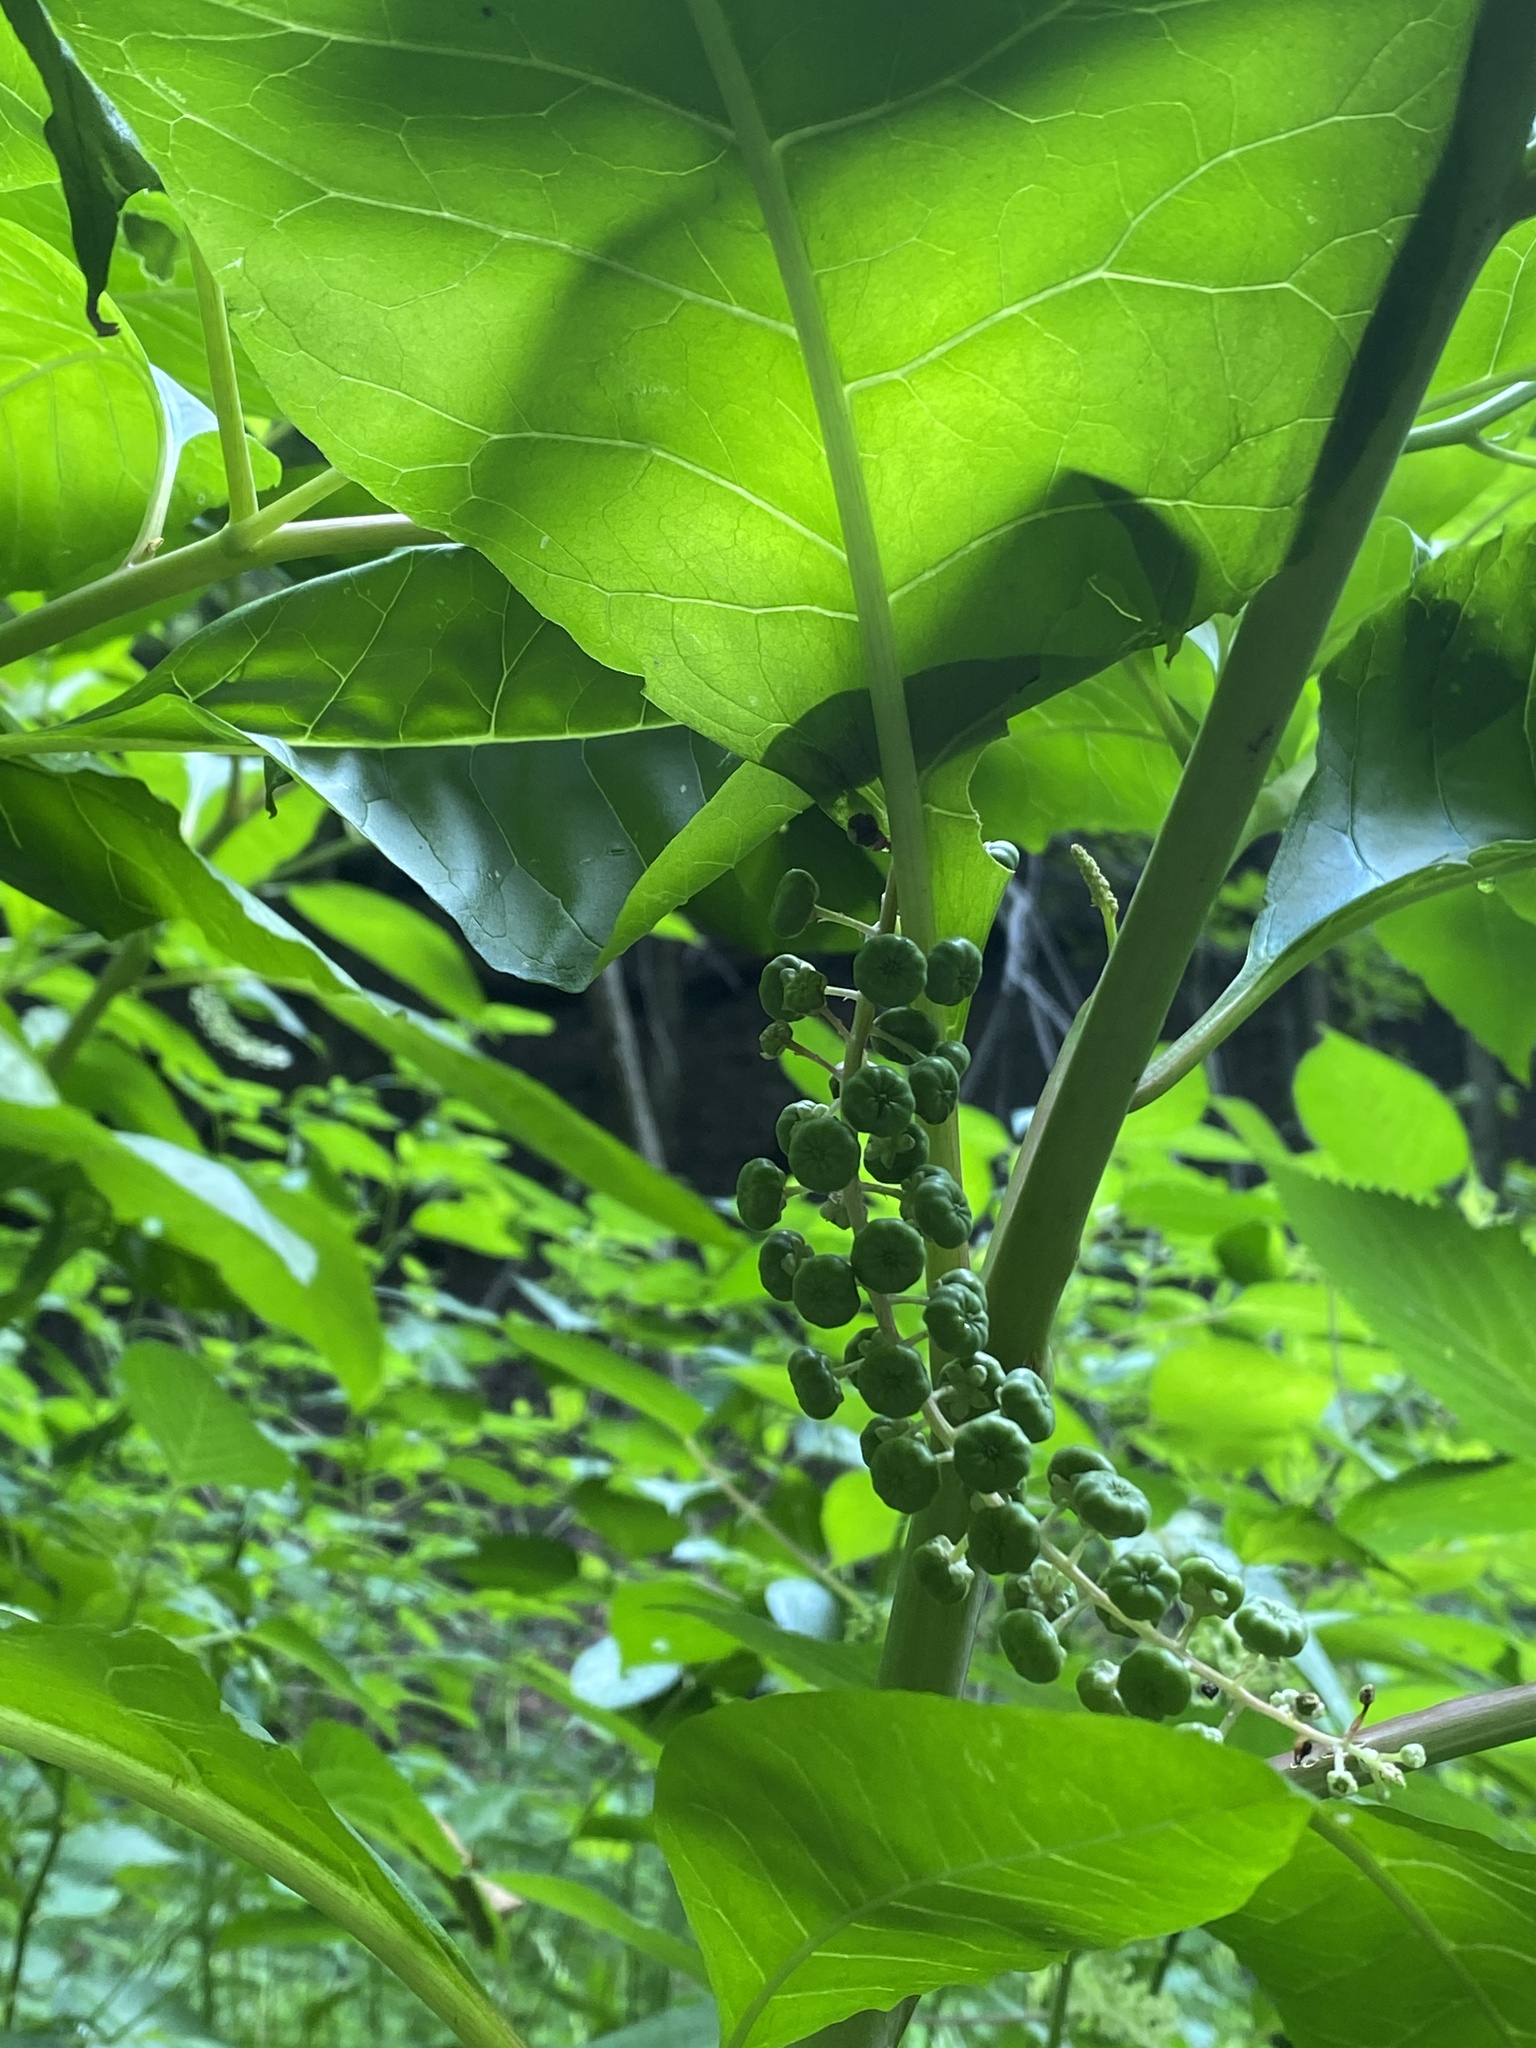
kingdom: Plantae
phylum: Tracheophyta
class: Magnoliopsida
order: Caryophyllales
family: Phytolaccaceae
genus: Phytolacca
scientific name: Phytolacca americana
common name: American pokeweed
